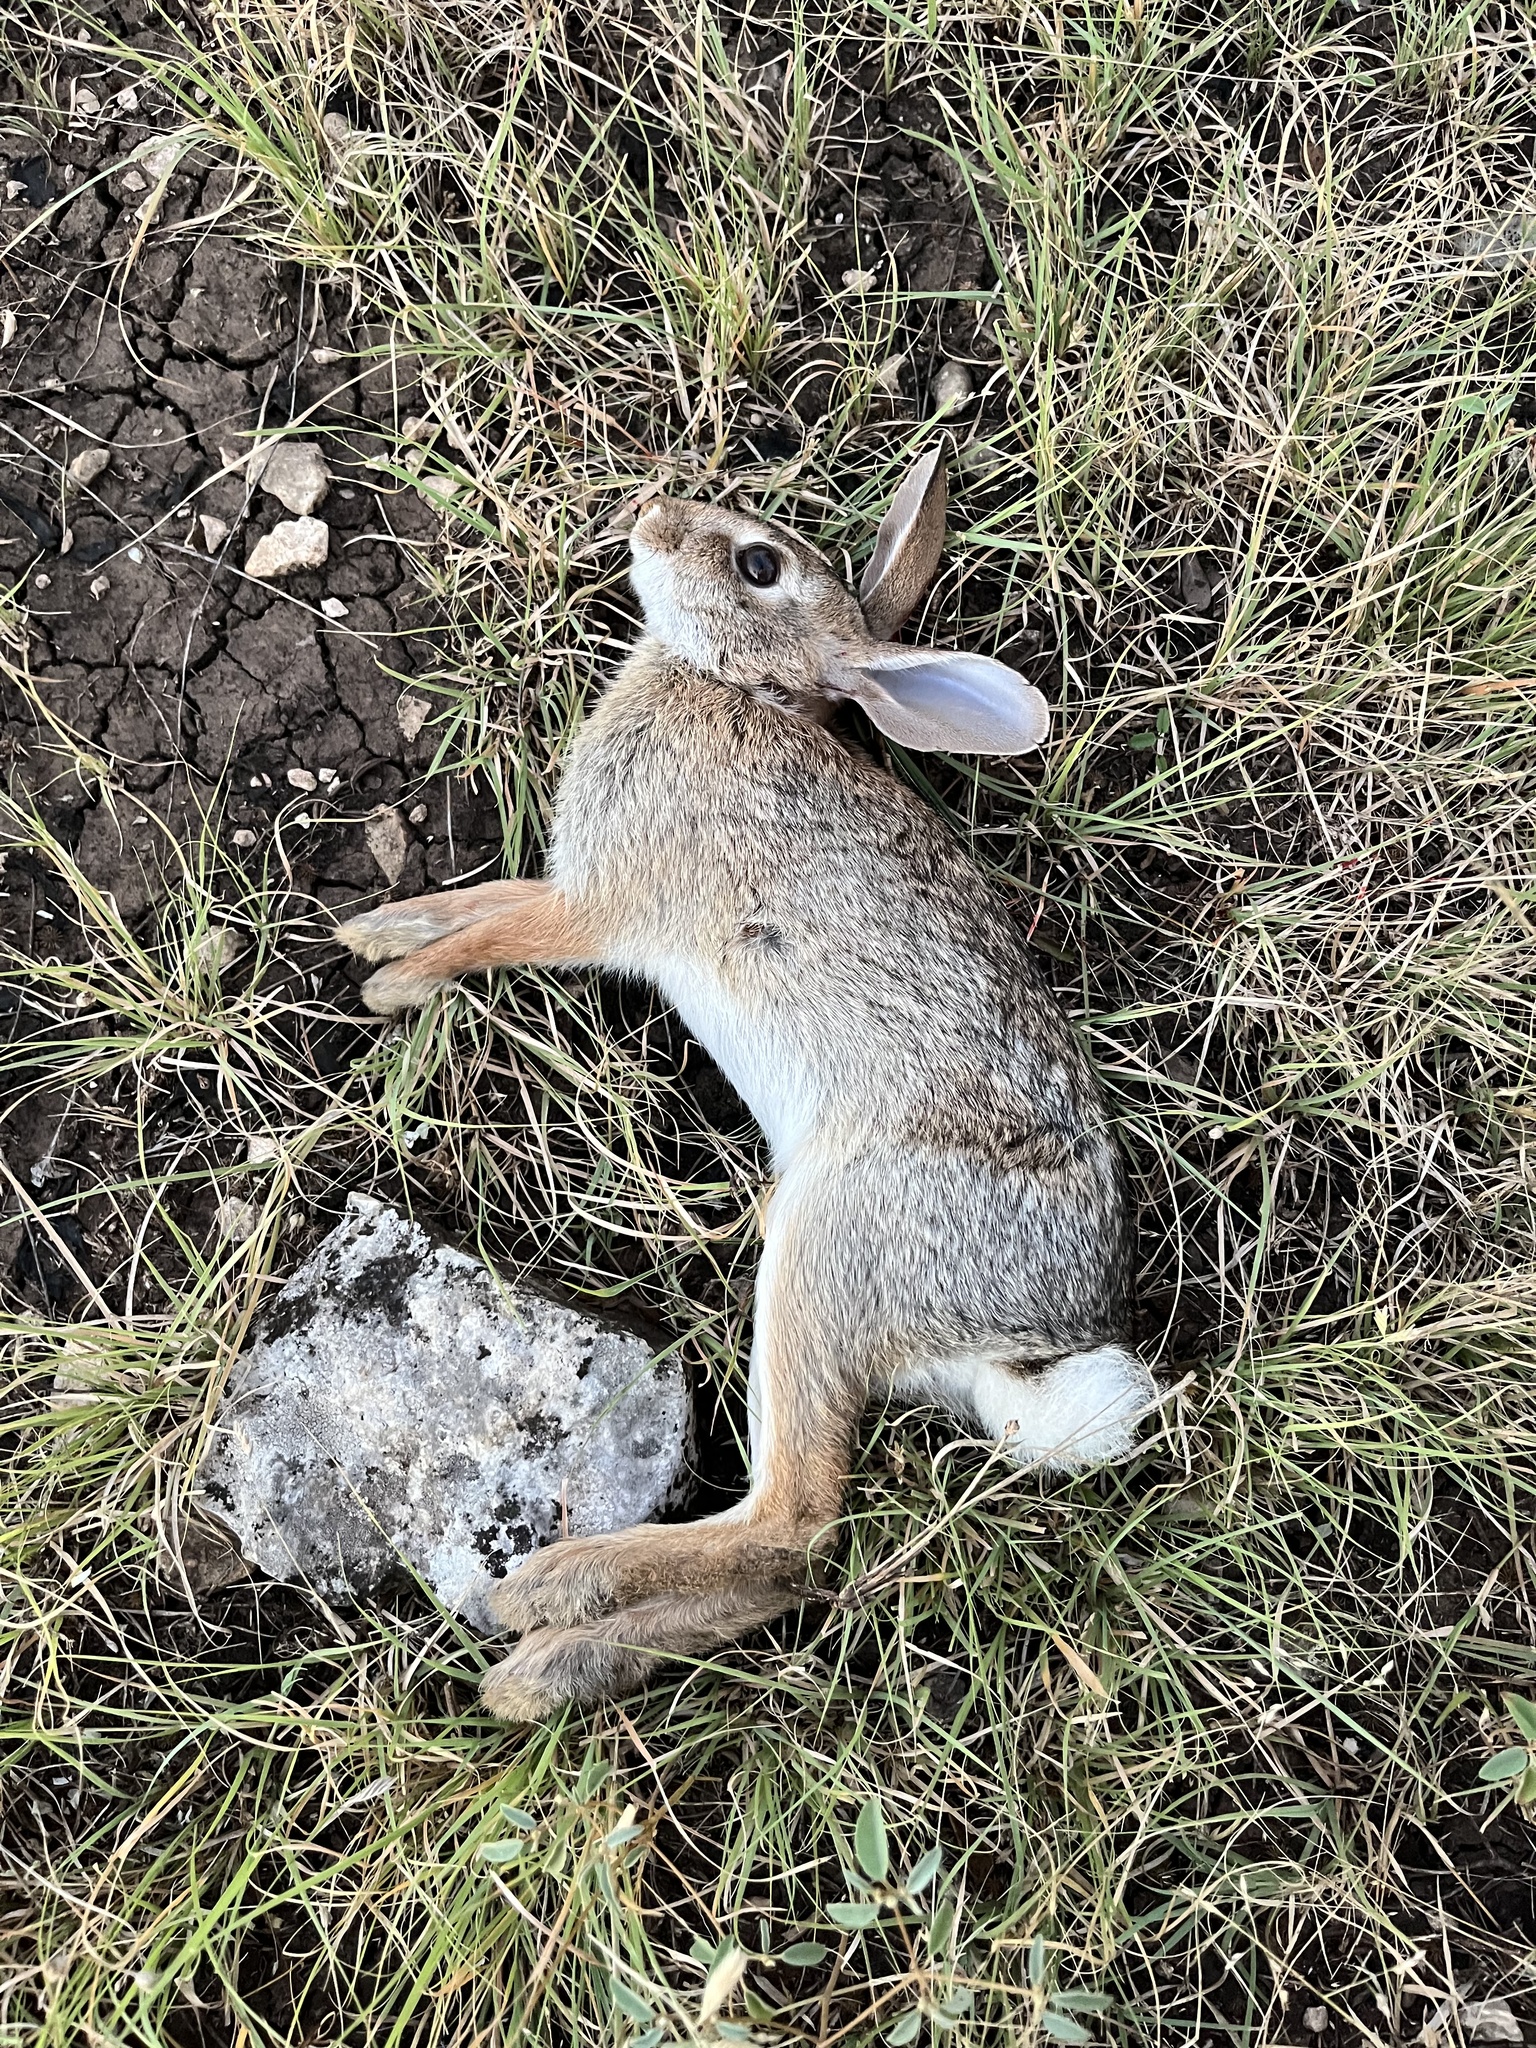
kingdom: Animalia
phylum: Chordata
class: Mammalia
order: Lagomorpha
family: Leporidae
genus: Sylvilagus
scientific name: Sylvilagus floridanus
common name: Eastern cottontail
